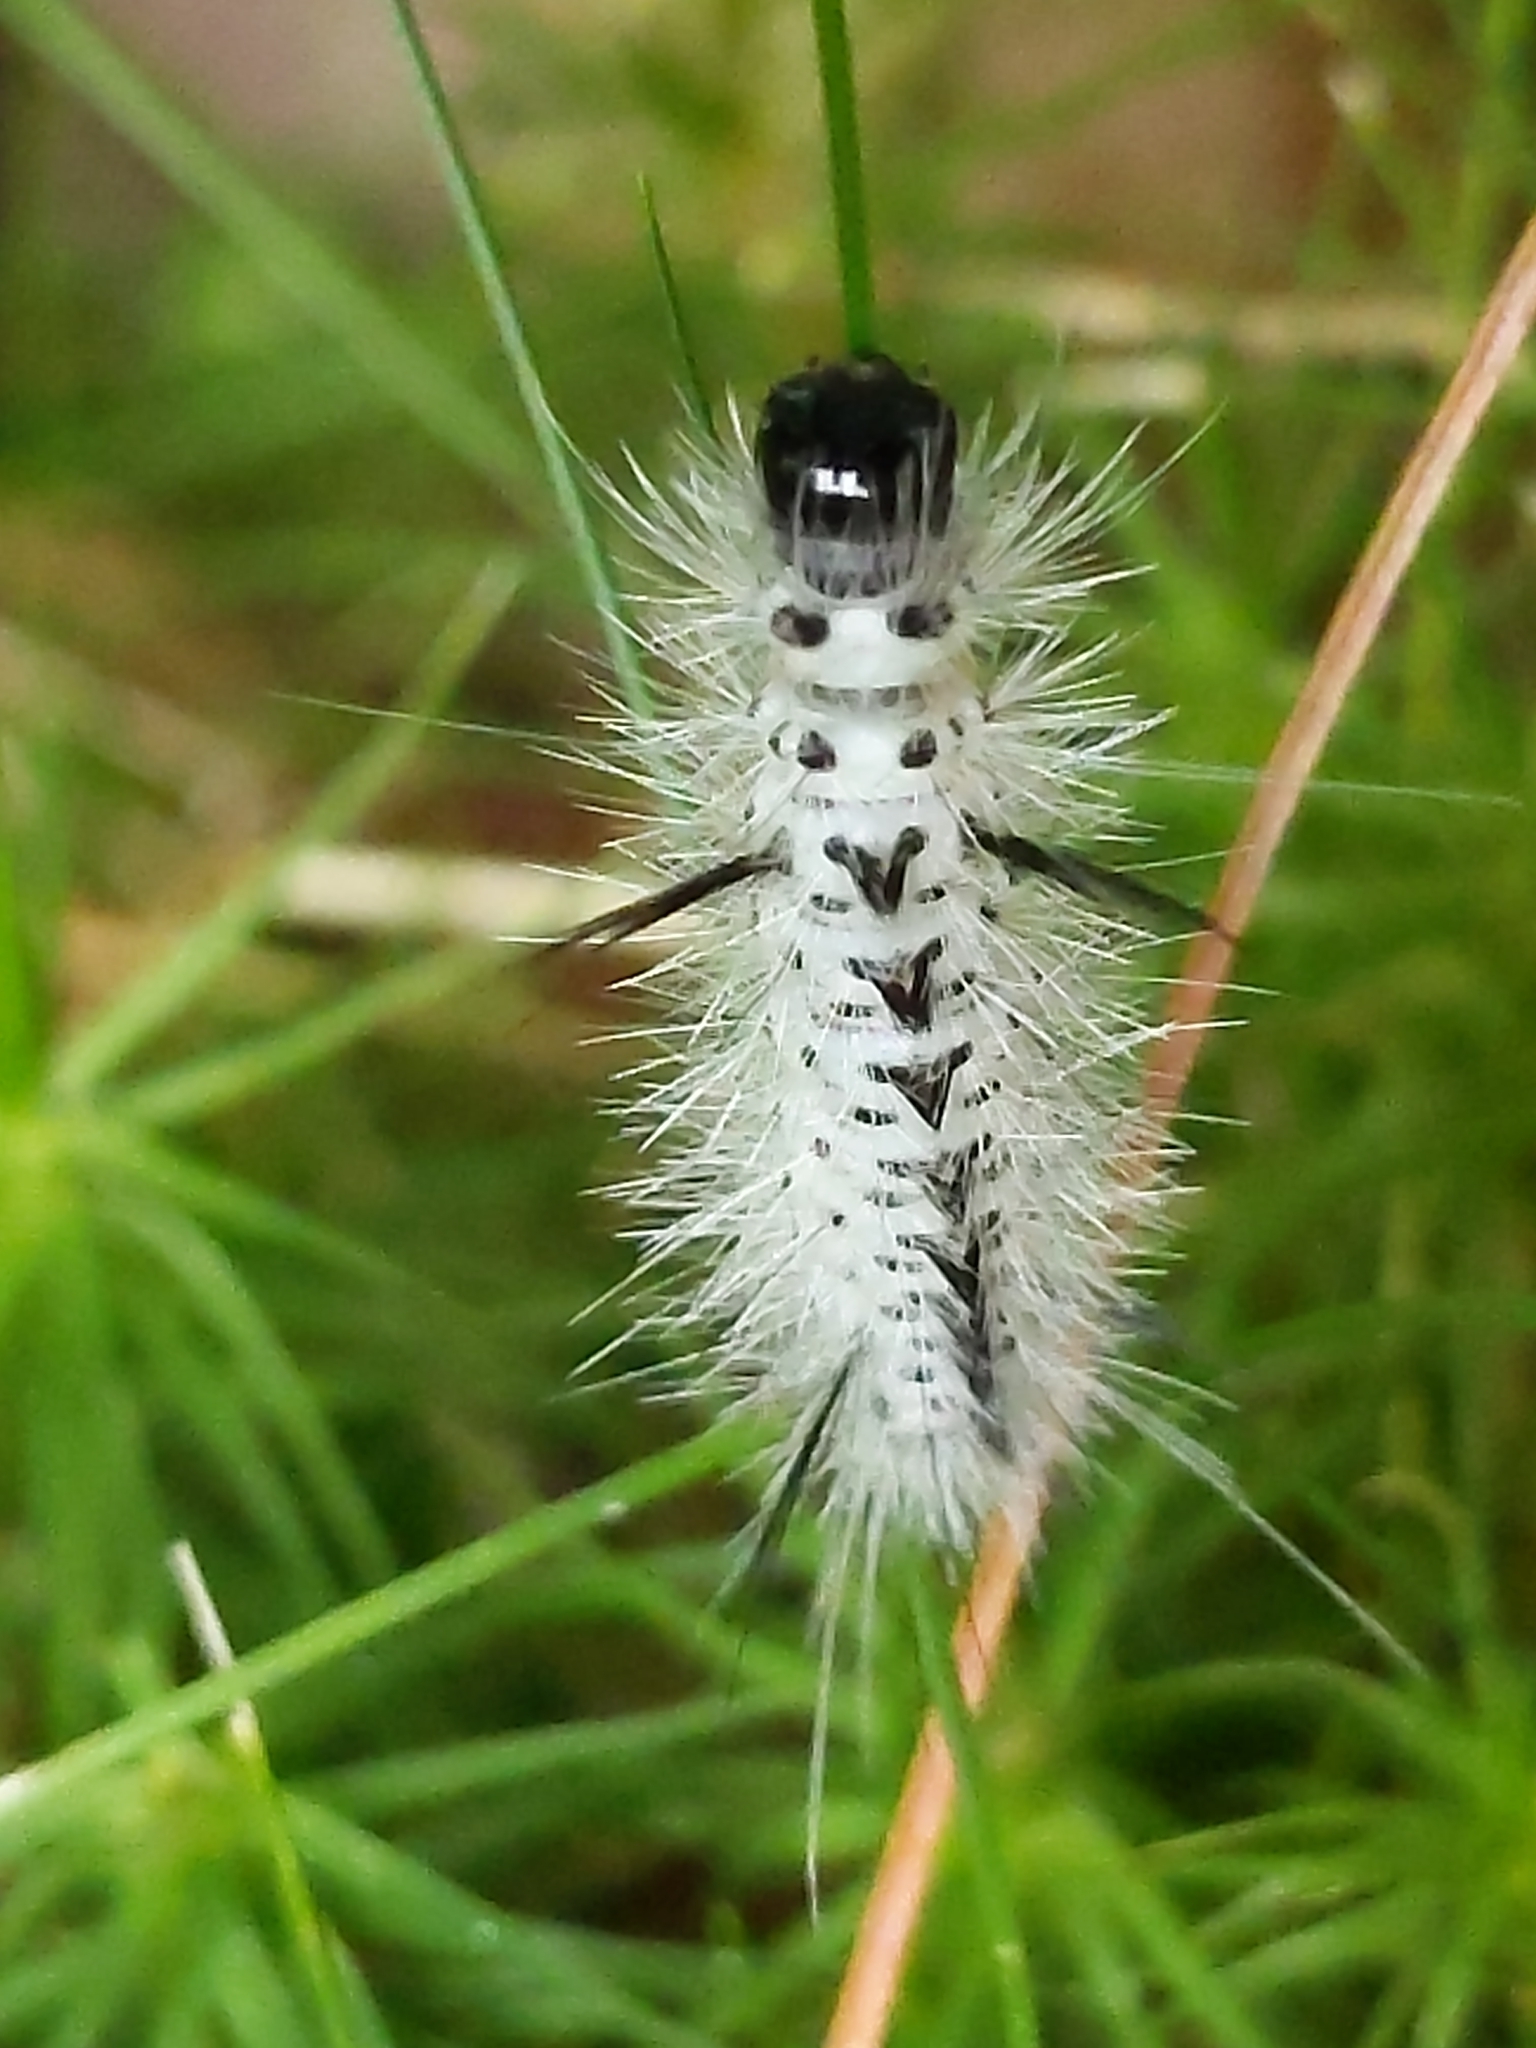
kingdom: Animalia
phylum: Arthropoda
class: Insecta
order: Lepidoptera
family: Erebidae
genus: Lophocampa
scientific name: Lophocampa caryae
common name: Hickory tussock moth
